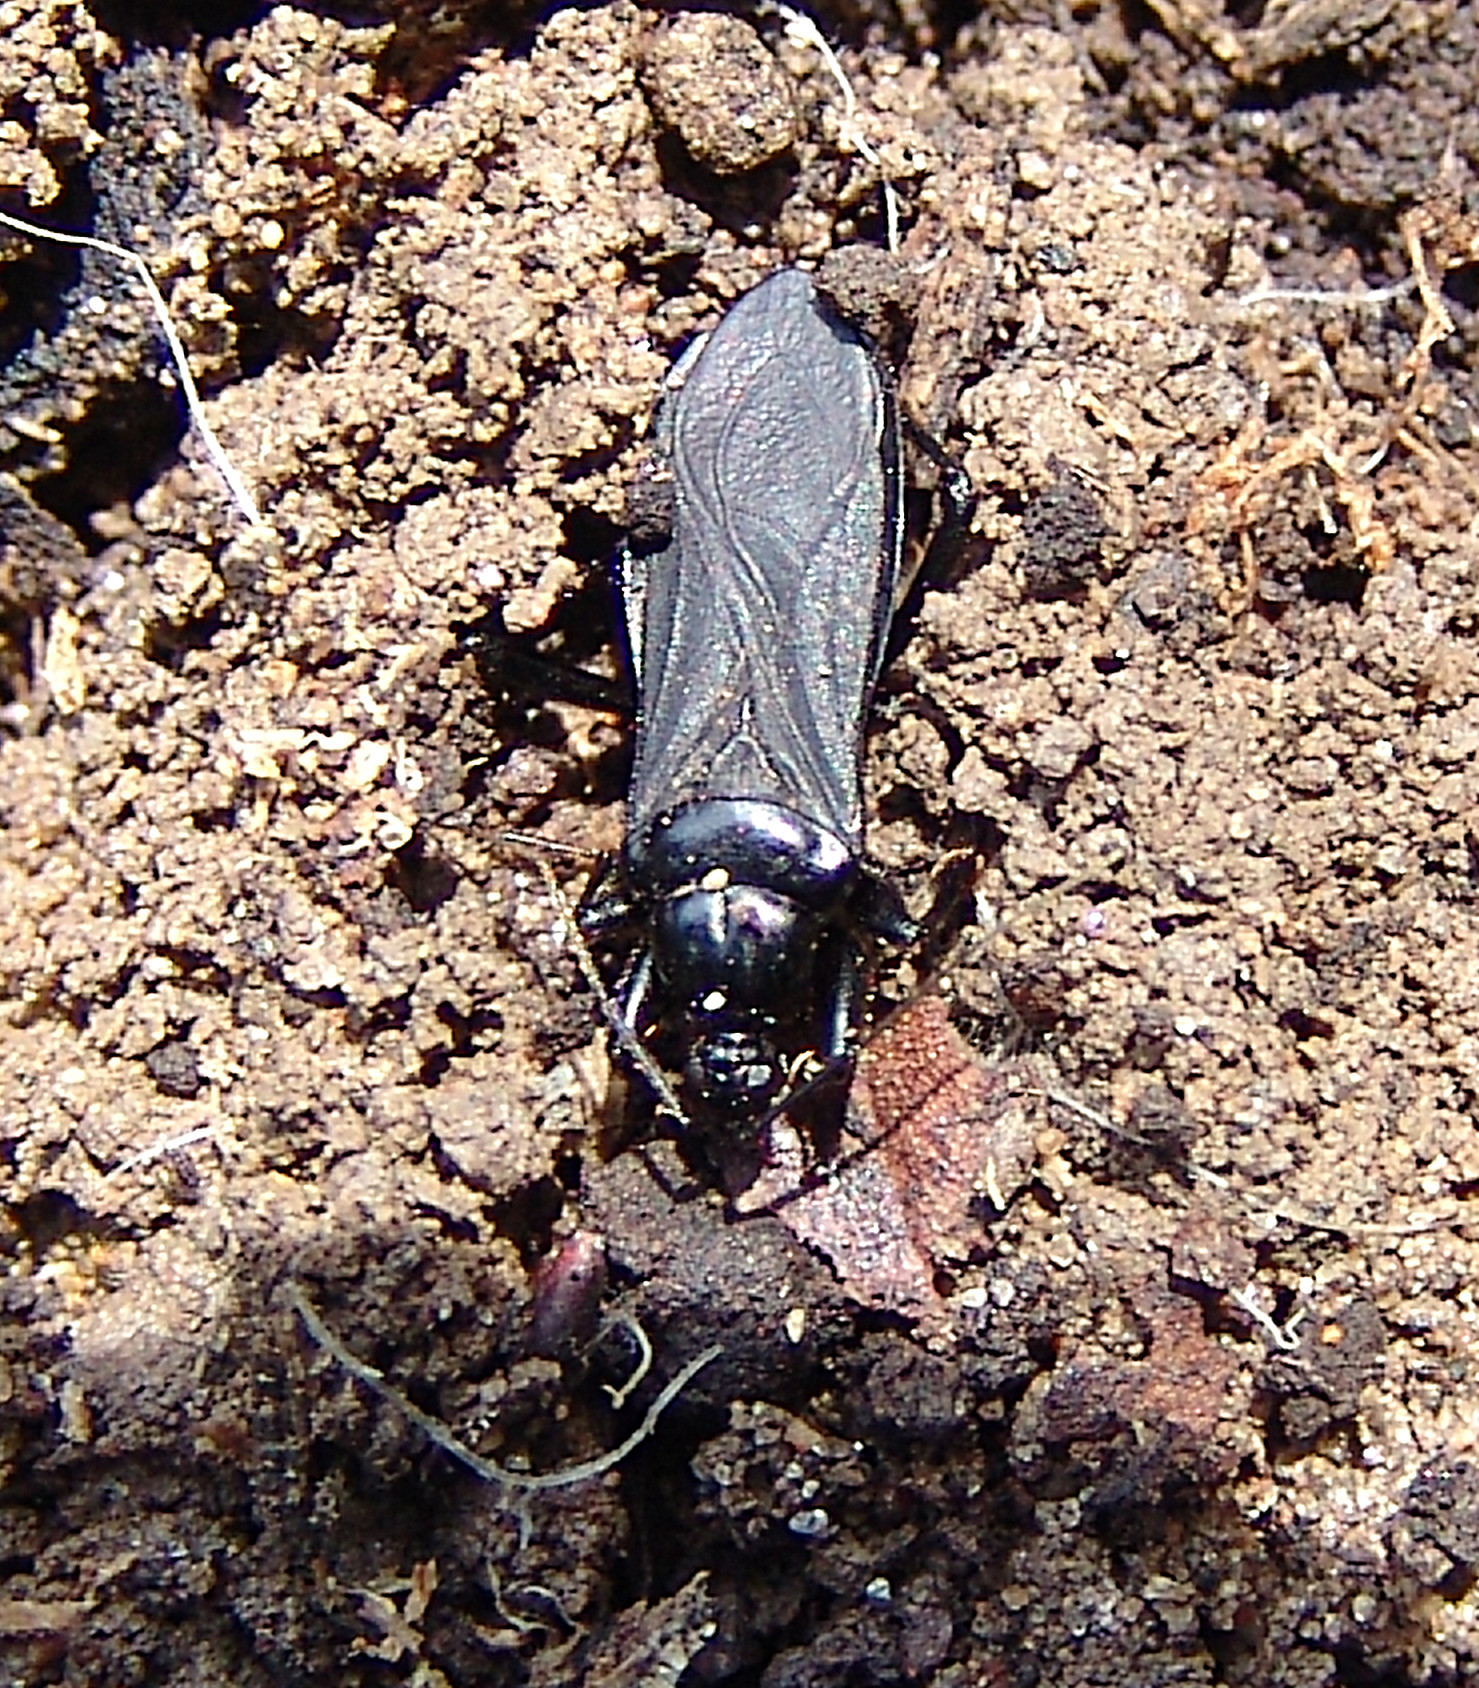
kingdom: Animalia
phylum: Arthropoda
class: Insecta
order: Hemiptera
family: Reduviidae
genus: Melanolestes
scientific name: Melanolestes picipes
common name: Assassin bug
